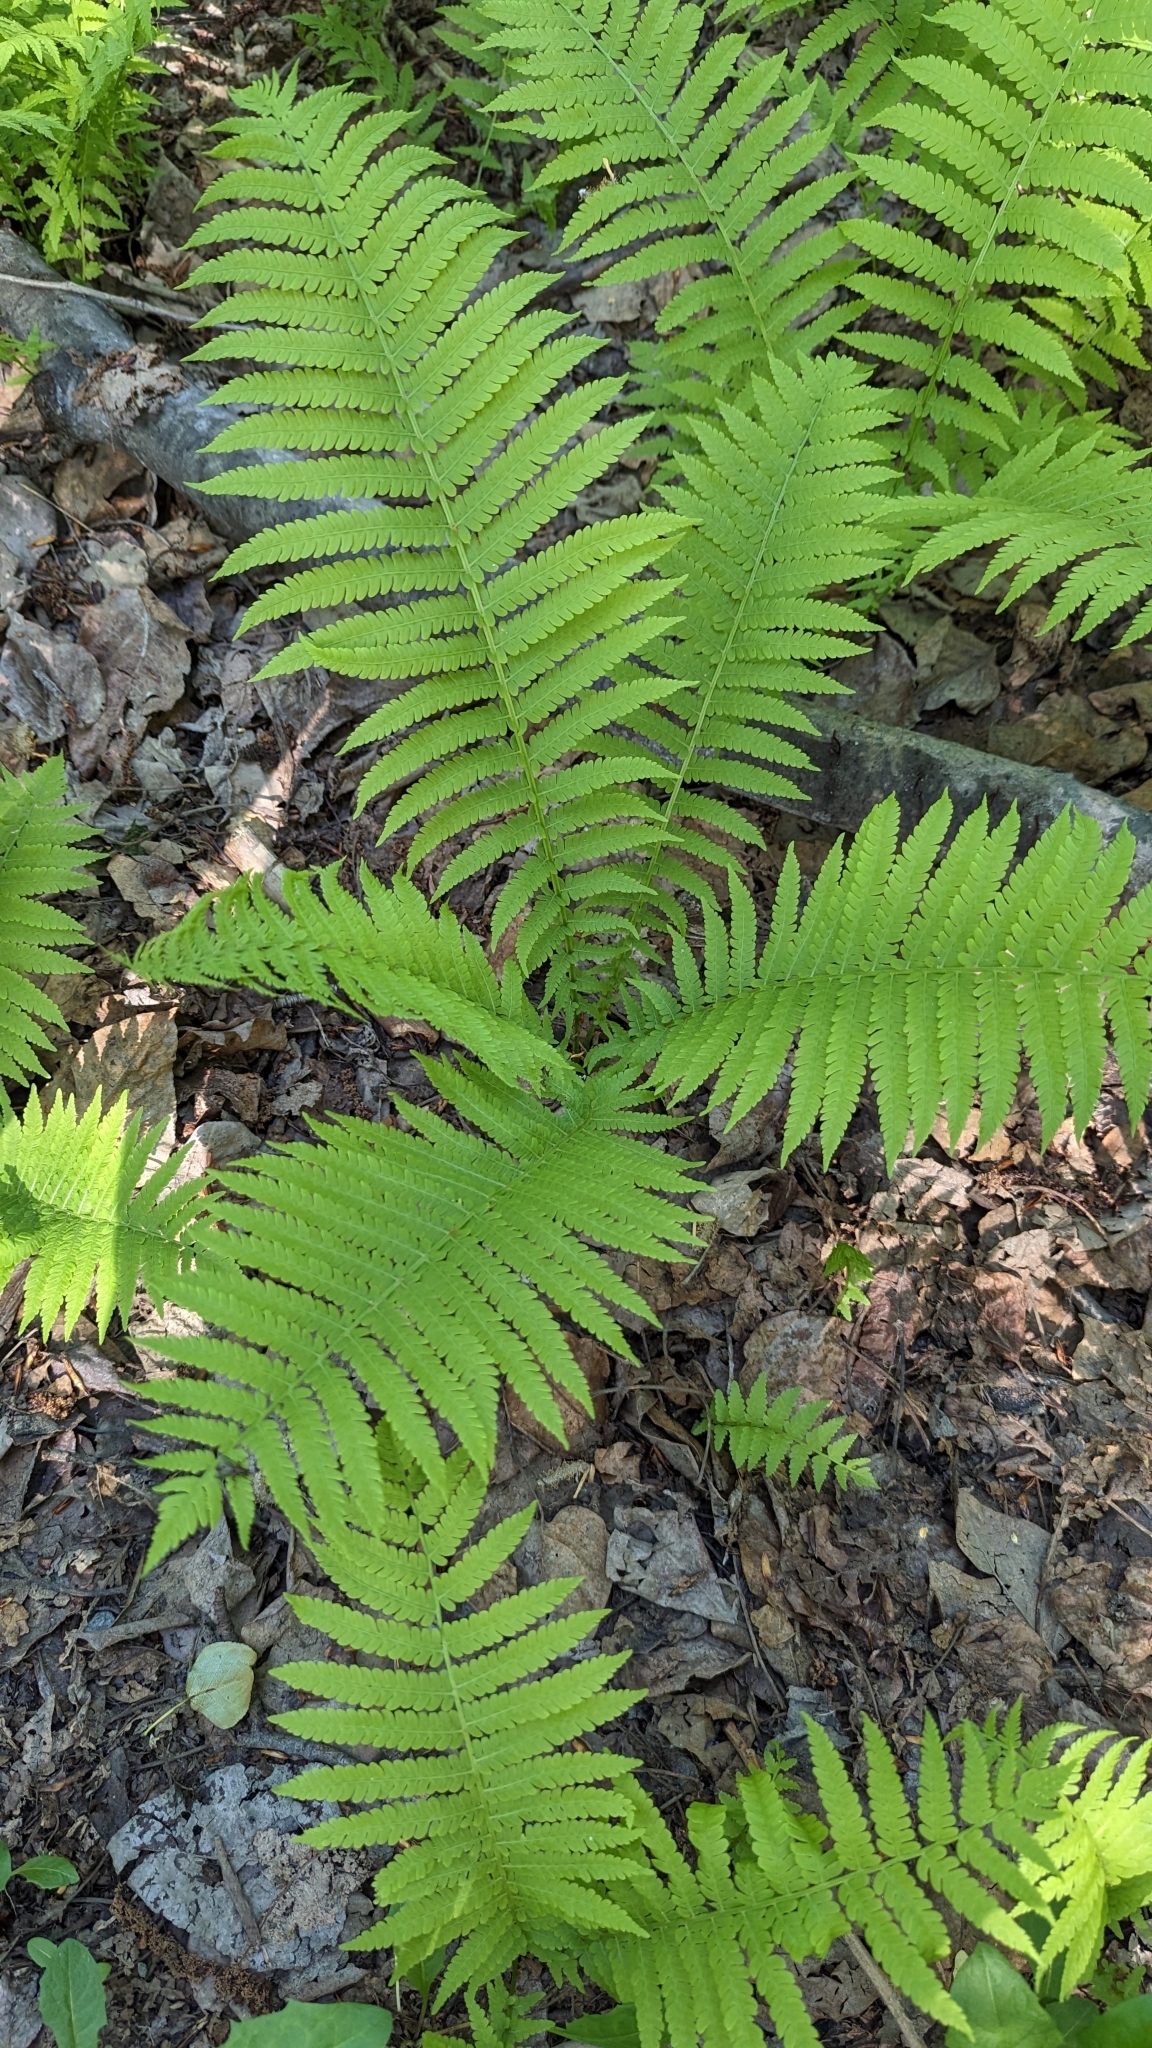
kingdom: Plantae
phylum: Tracheophyta
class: Polypodiopsida
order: Polypodiales
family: Onocleaceae
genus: Matteuccia
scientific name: Matteuccia struthiopteris
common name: Ostrich fern
